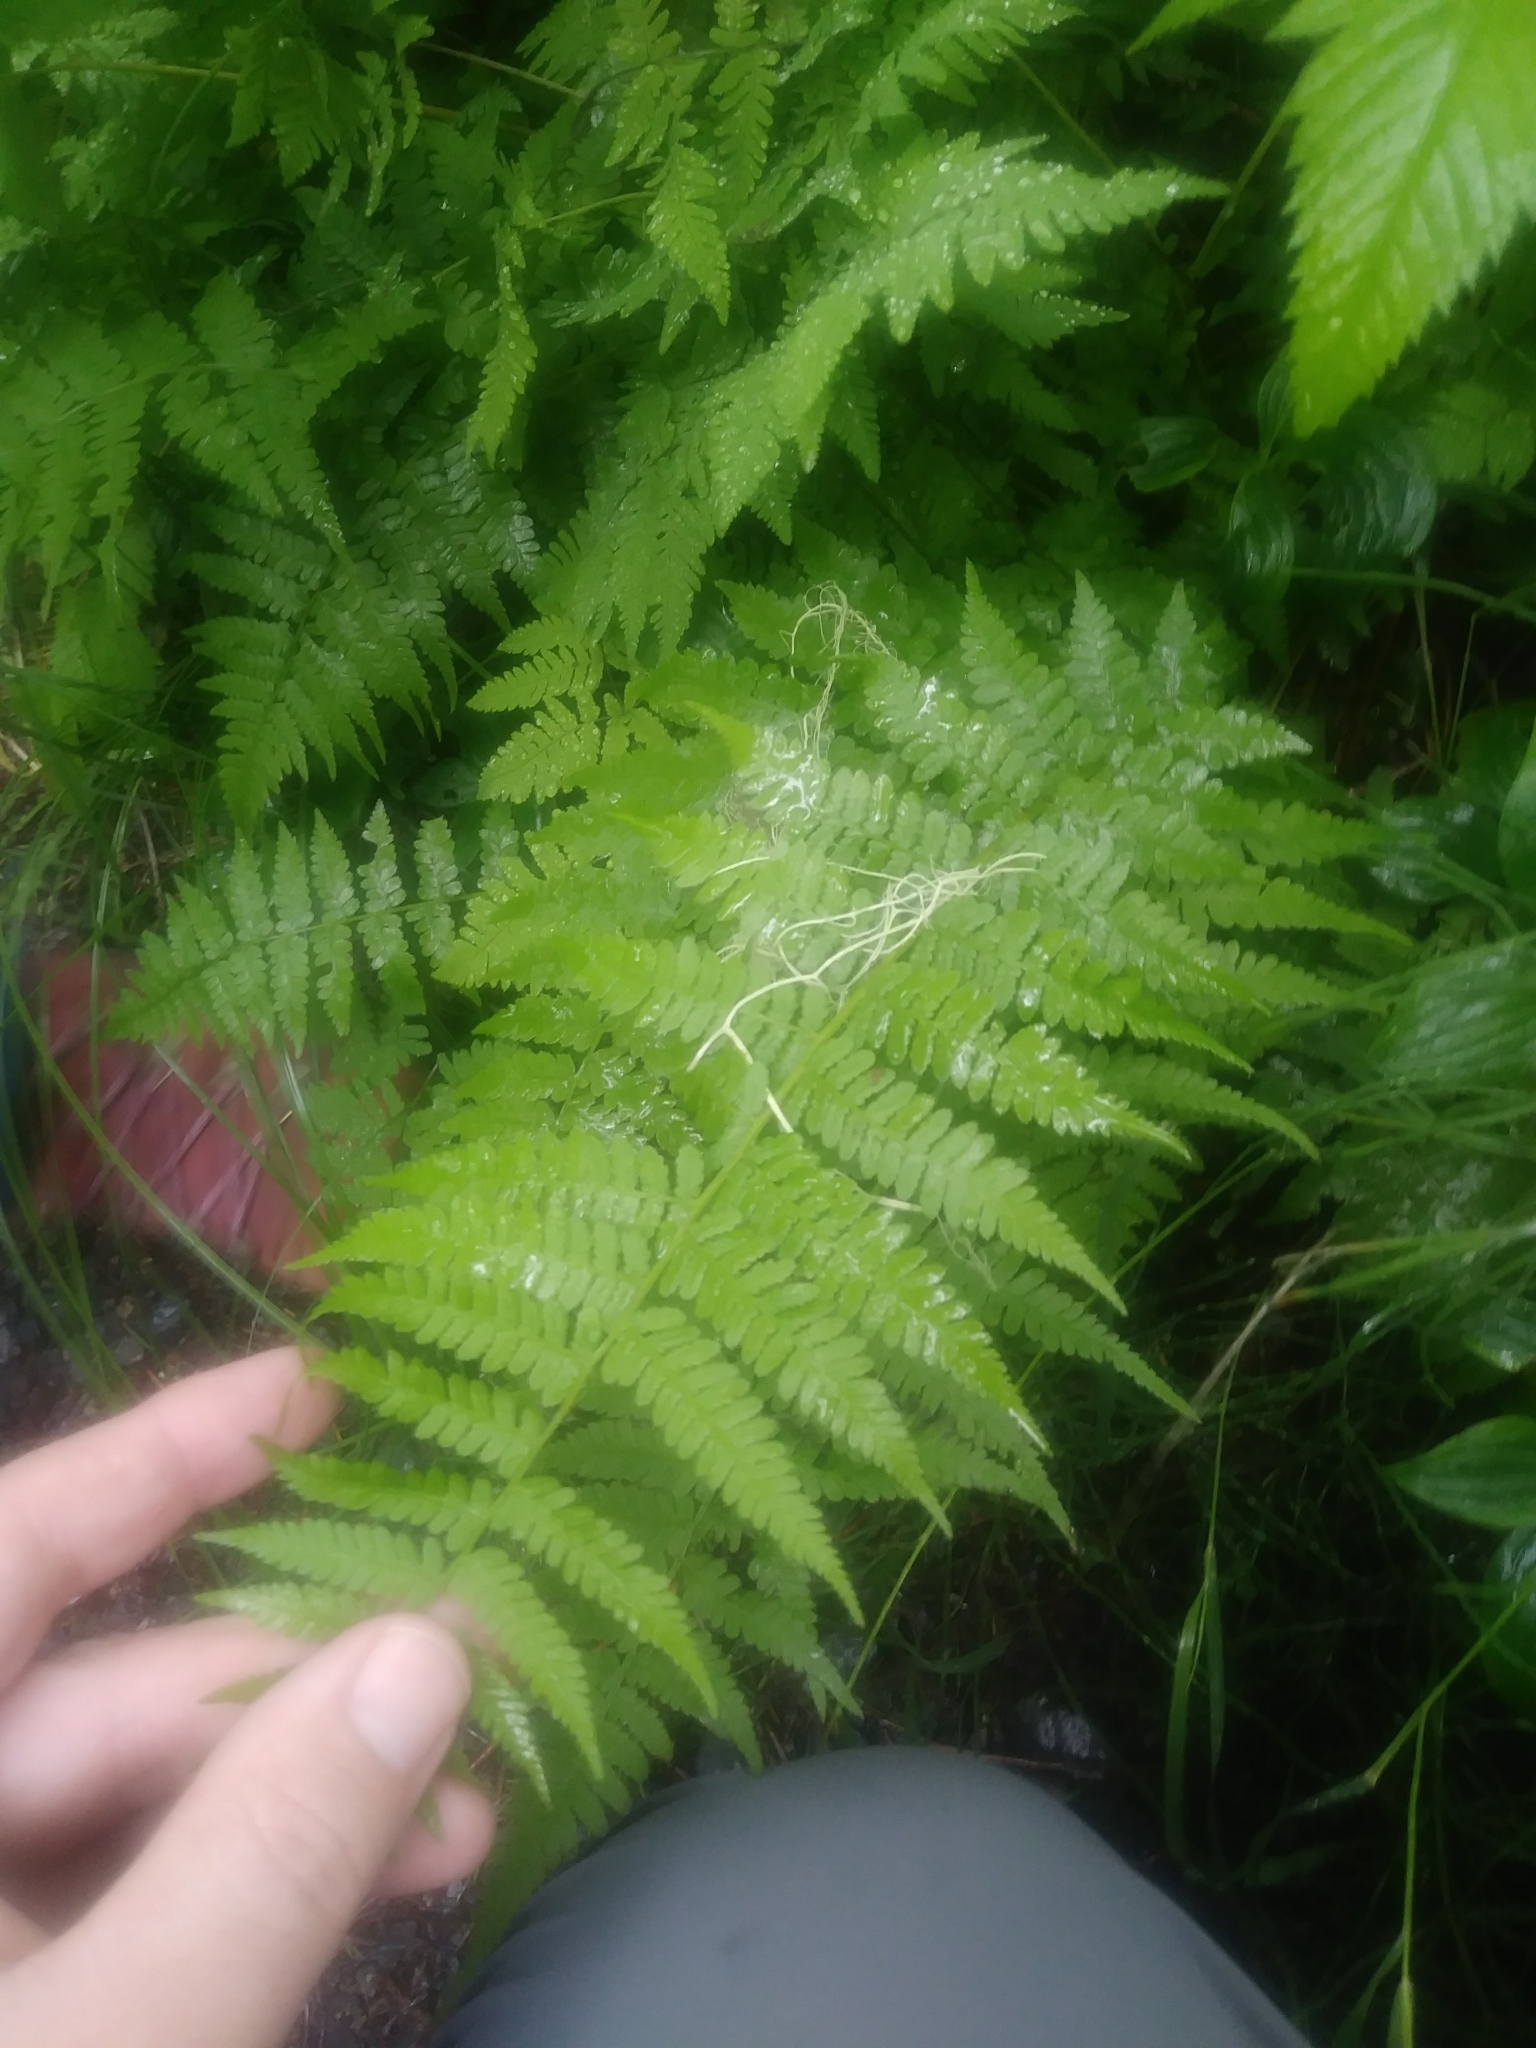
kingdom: Plantae
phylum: Tracheophyta
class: Polypodiopsida
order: Polypodiales
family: Athyriaceae
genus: Athyrium
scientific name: Athyrium cyclosorum
